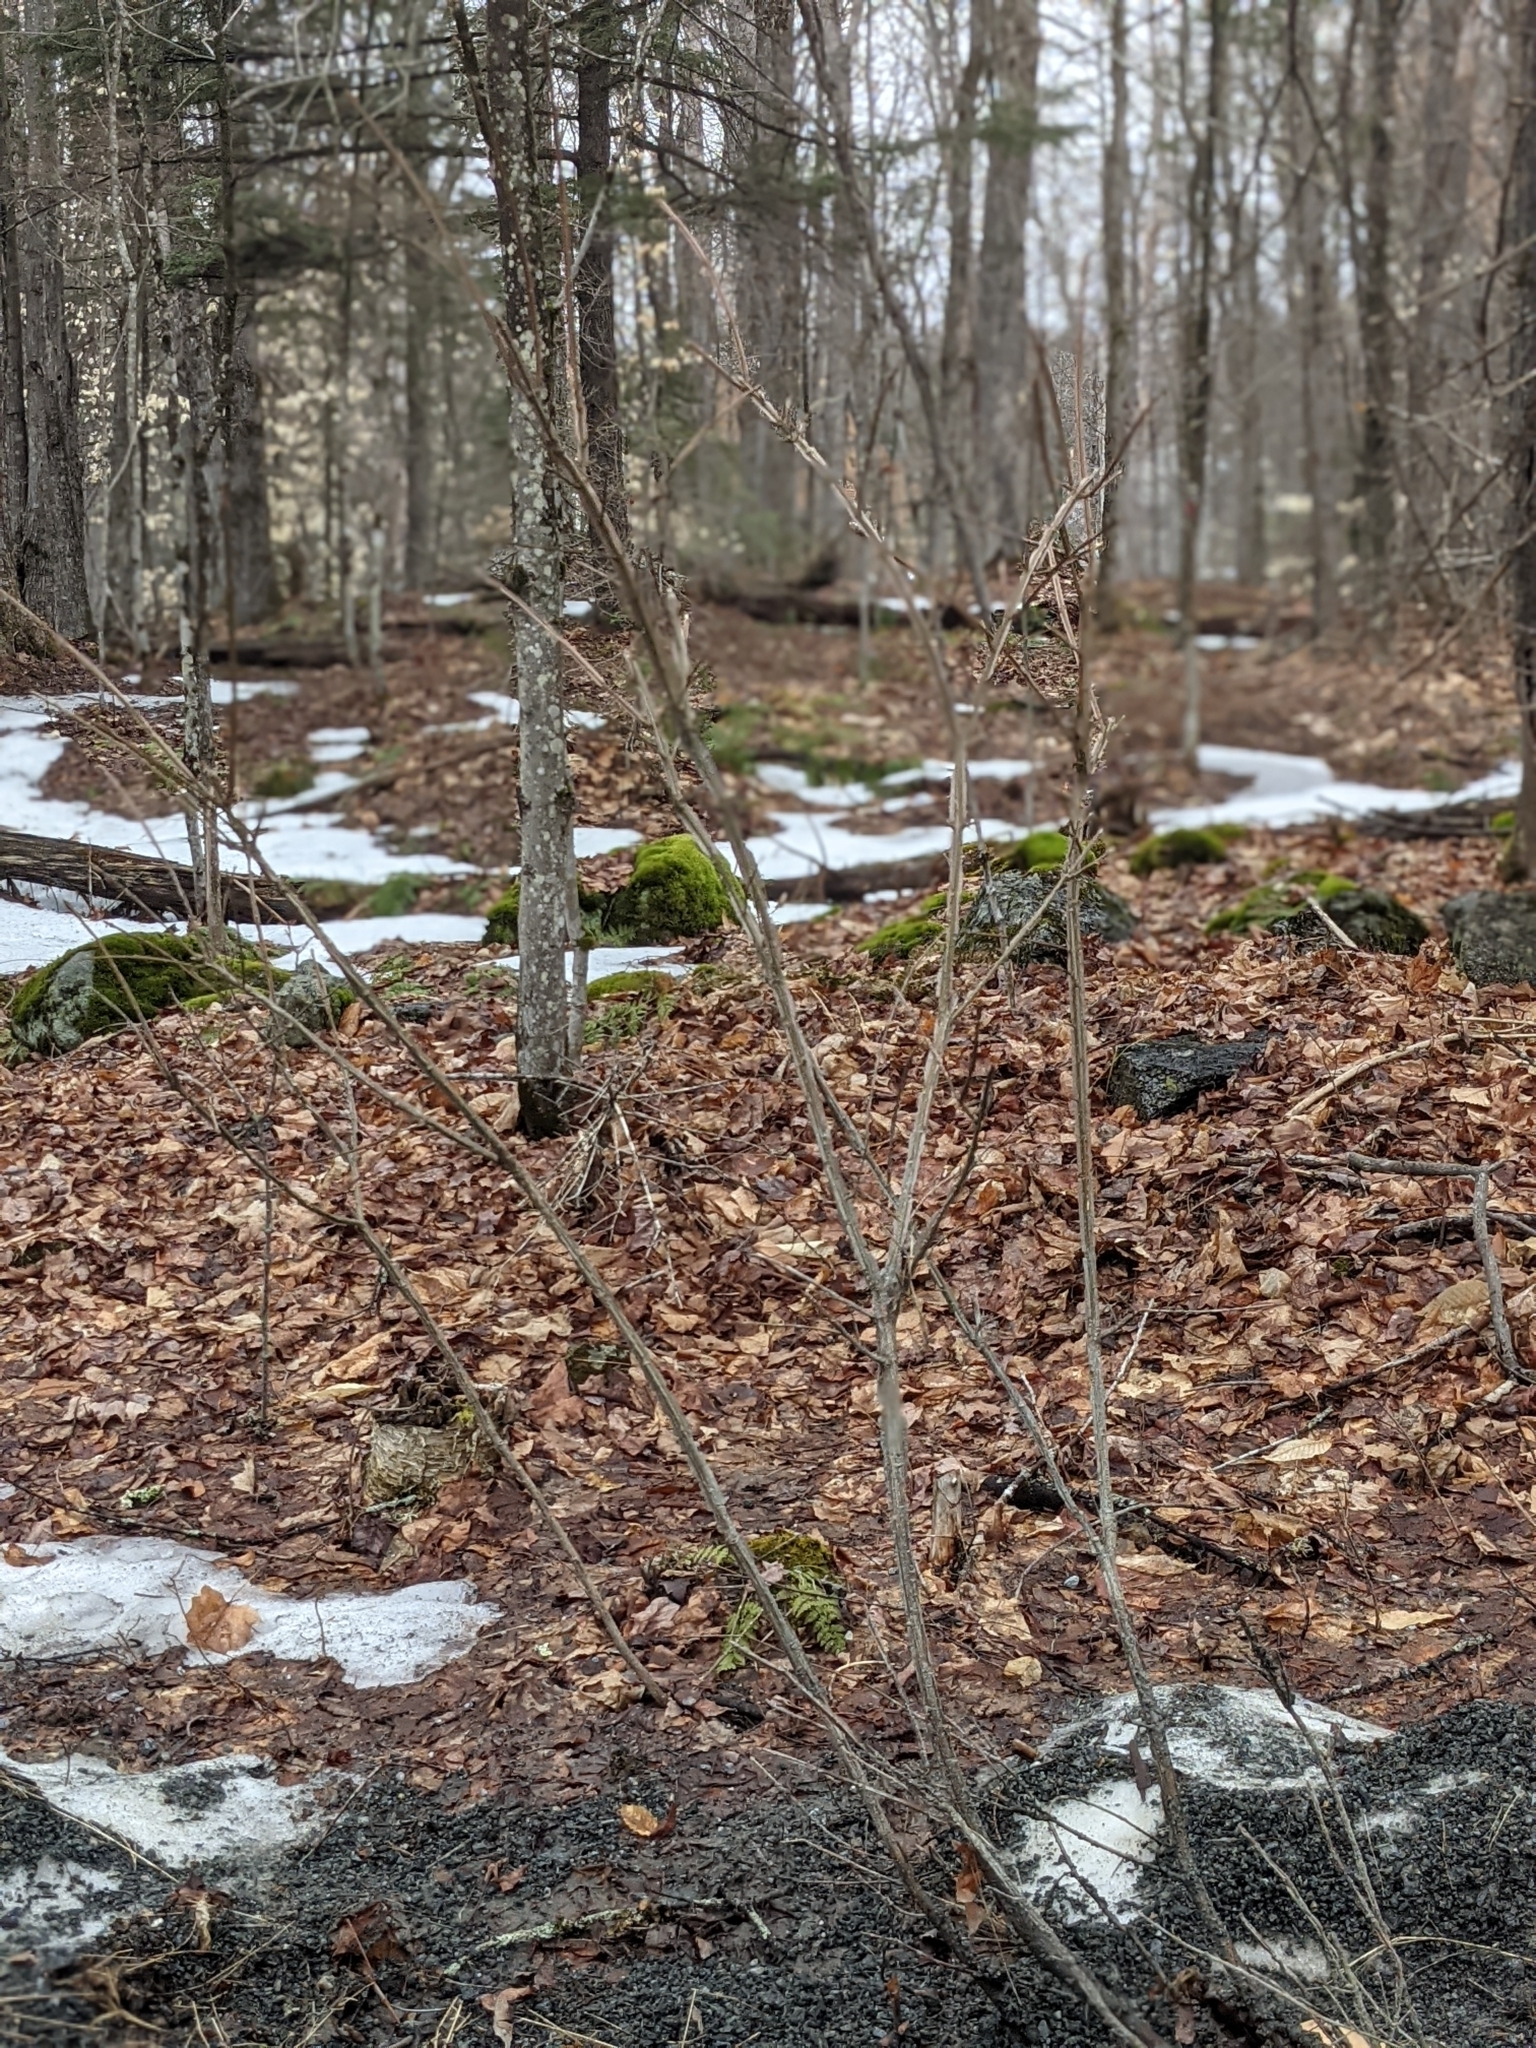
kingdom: Plantae
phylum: Tracheophyta
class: Magnoliopsida
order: Celastrales
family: Celastraceae
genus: Euonymus
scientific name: Euonymus alatus
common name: Winged euonymus
